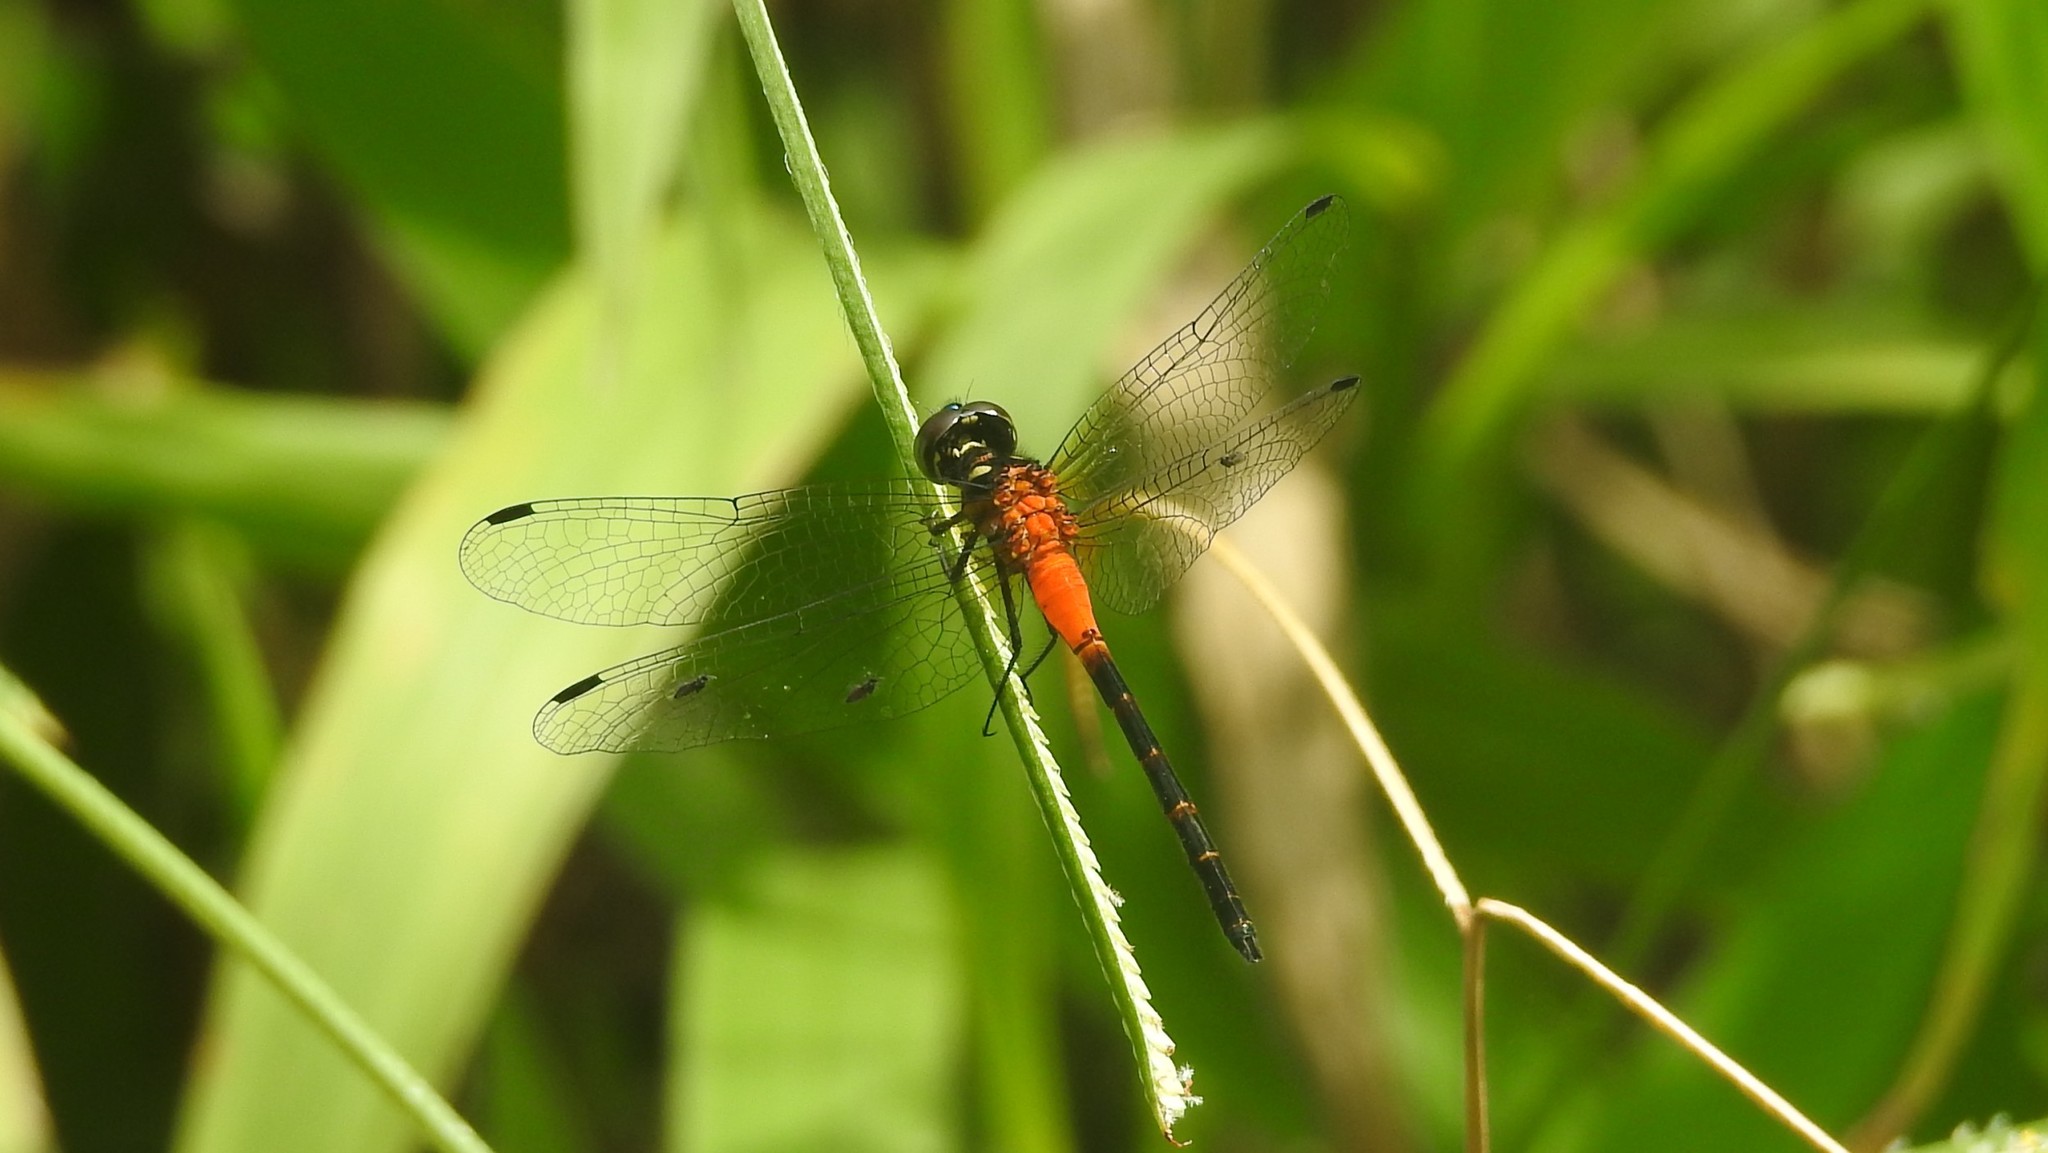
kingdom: Animalia
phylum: Arthropoda
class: Insecta
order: Odonata
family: Libellulidae
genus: Epithemis
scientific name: Epithemis mariae
